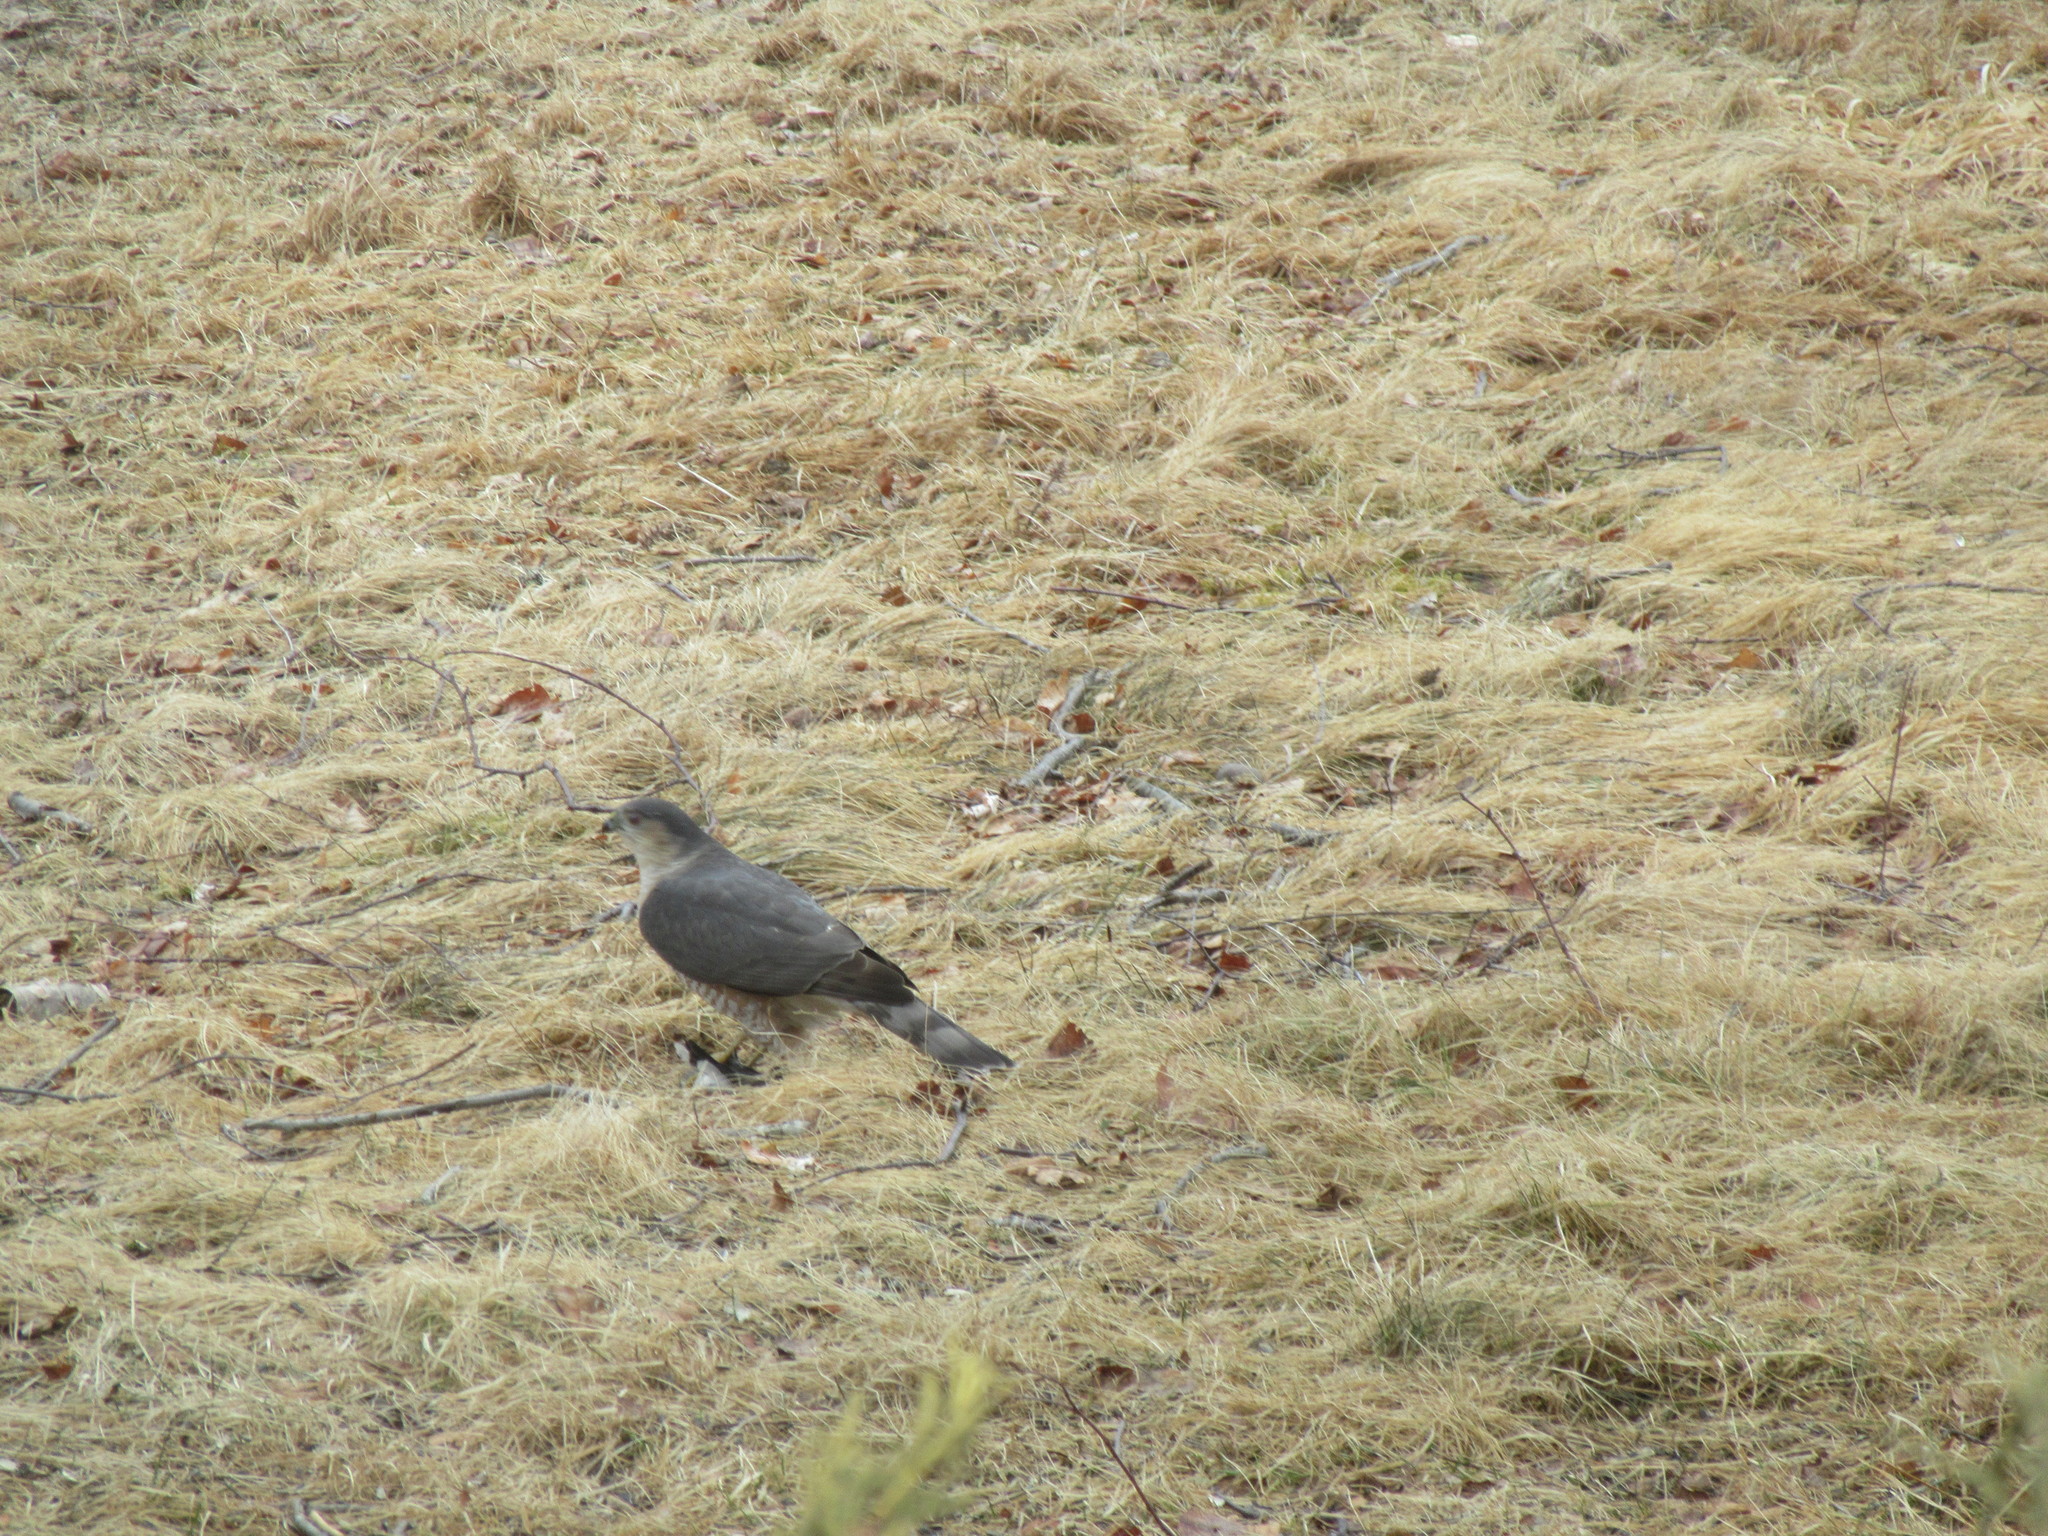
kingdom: Animalia
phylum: Chordata
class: Aves
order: Accipitriformes
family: Accipitridae
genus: Accipiter
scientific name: Accipiter striatus
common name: Sharp-shinned hawk
